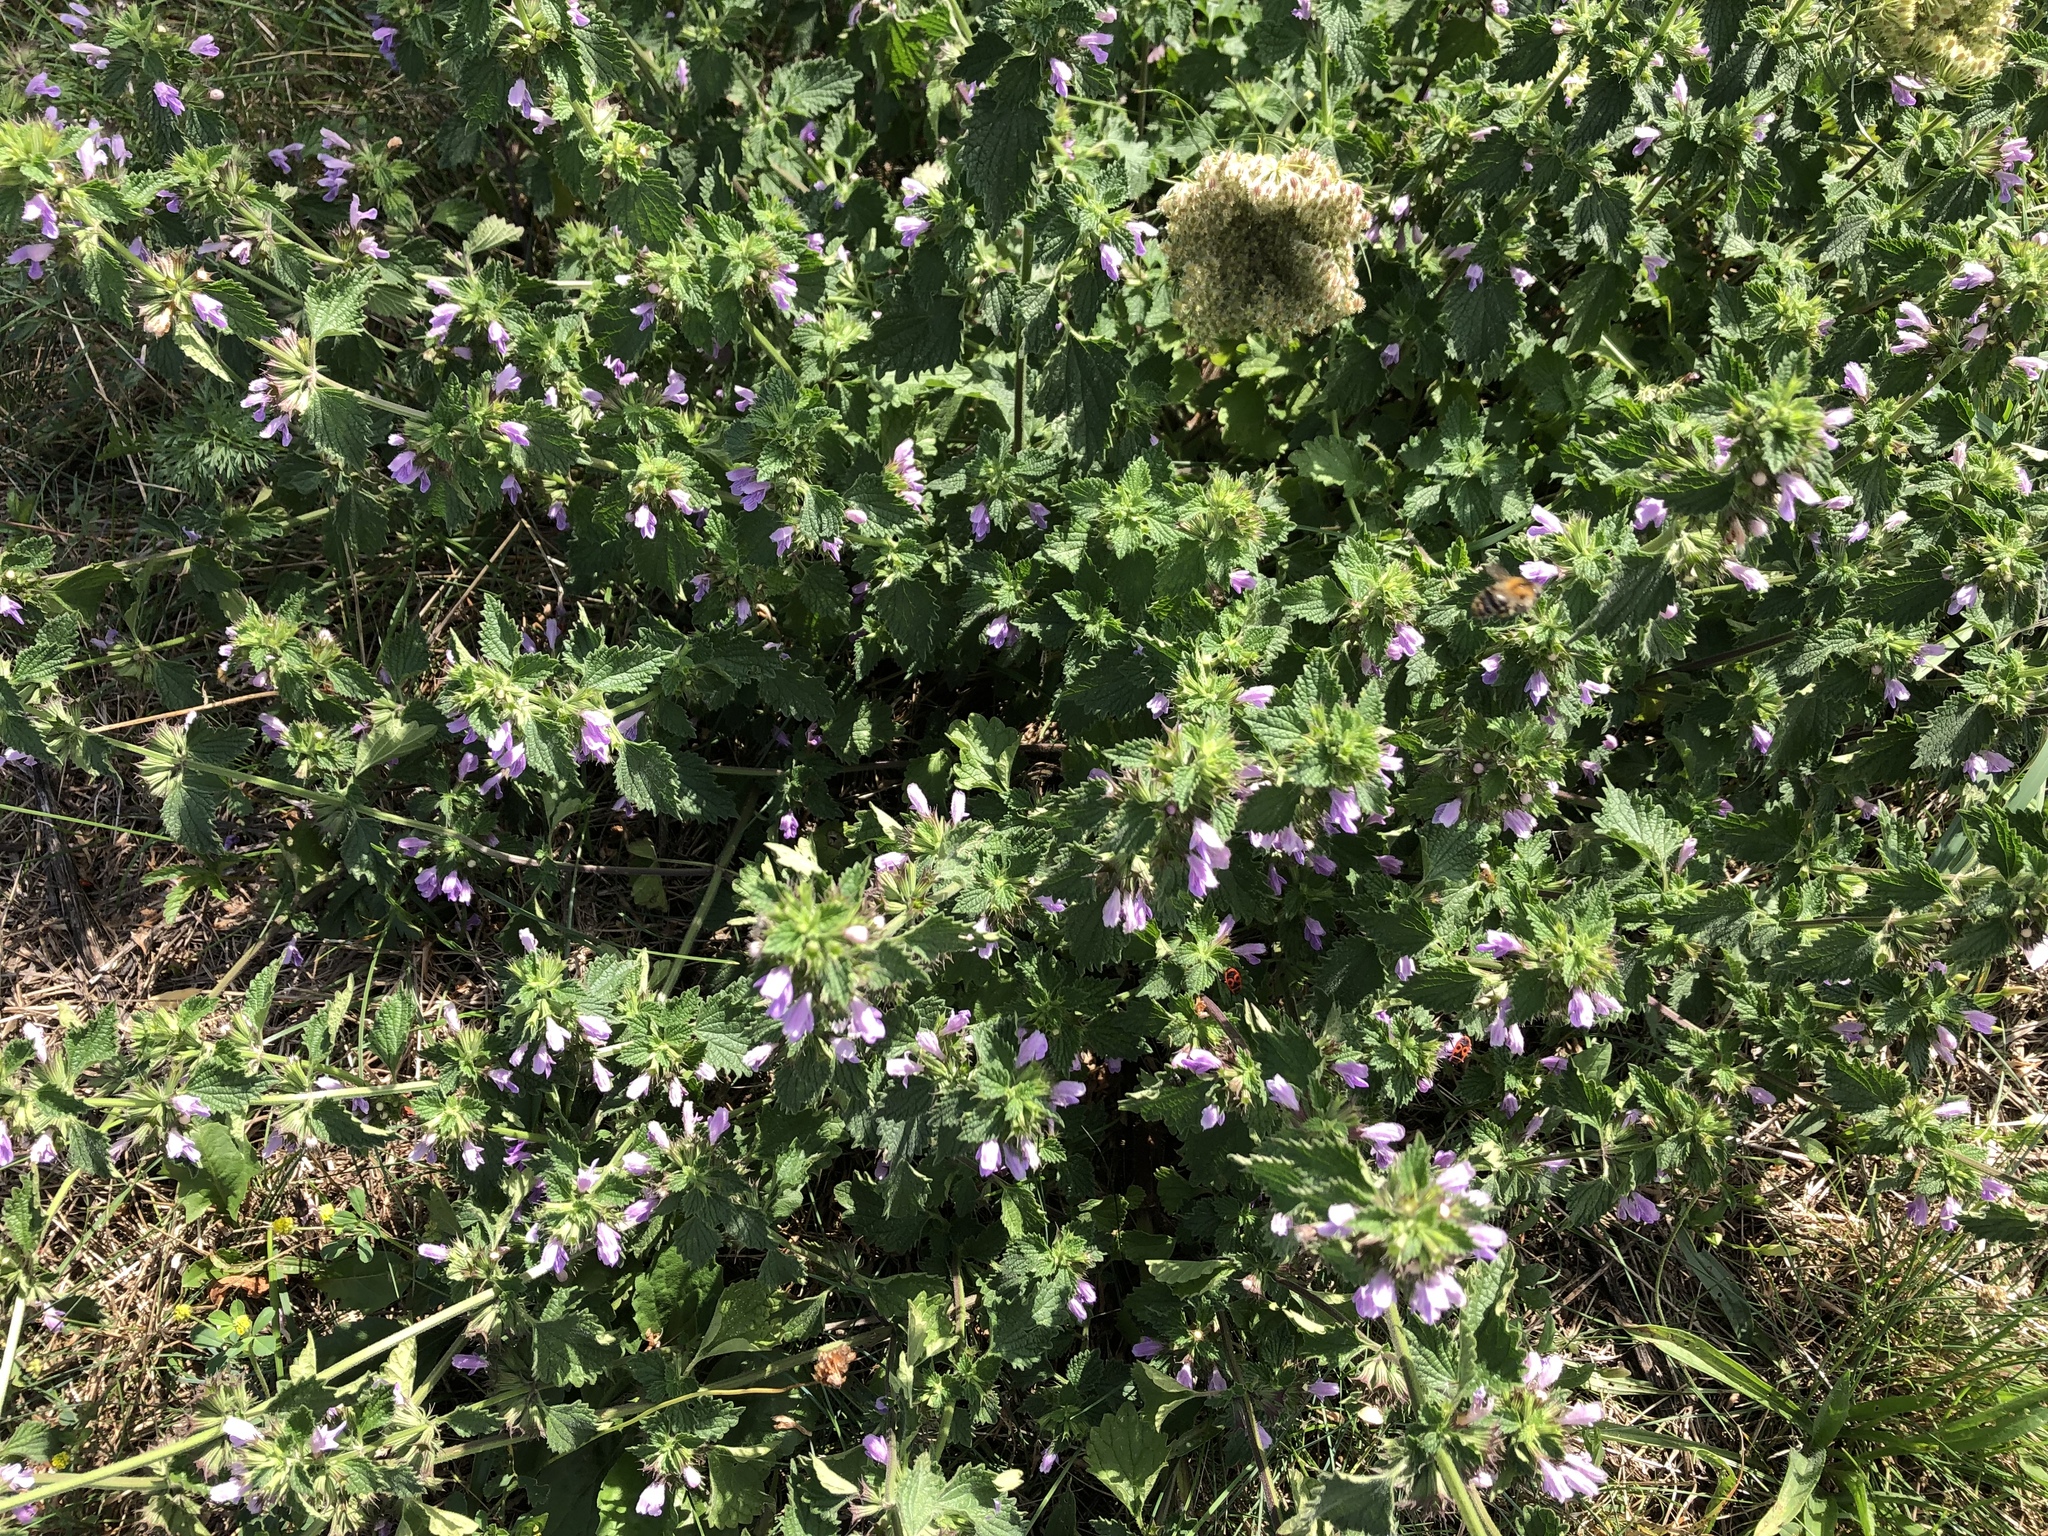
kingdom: Plantae
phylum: Tracheophyta
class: Magnoliopsida
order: Lamiales
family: Lamiaceae
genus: Ballota
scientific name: Ballota nigra
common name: Black horehound
